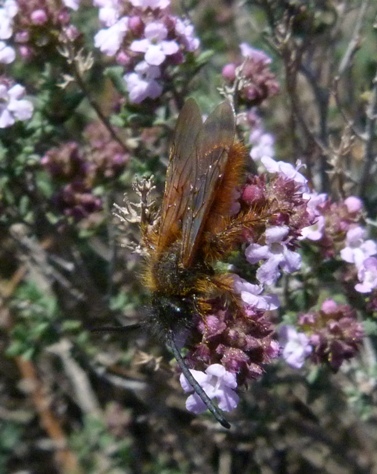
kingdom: Animalia
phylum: Arthropoda
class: Insecta
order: Hymenoptera
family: Scoliidae
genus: Dasyscolia
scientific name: Dasyscolia ciliata
